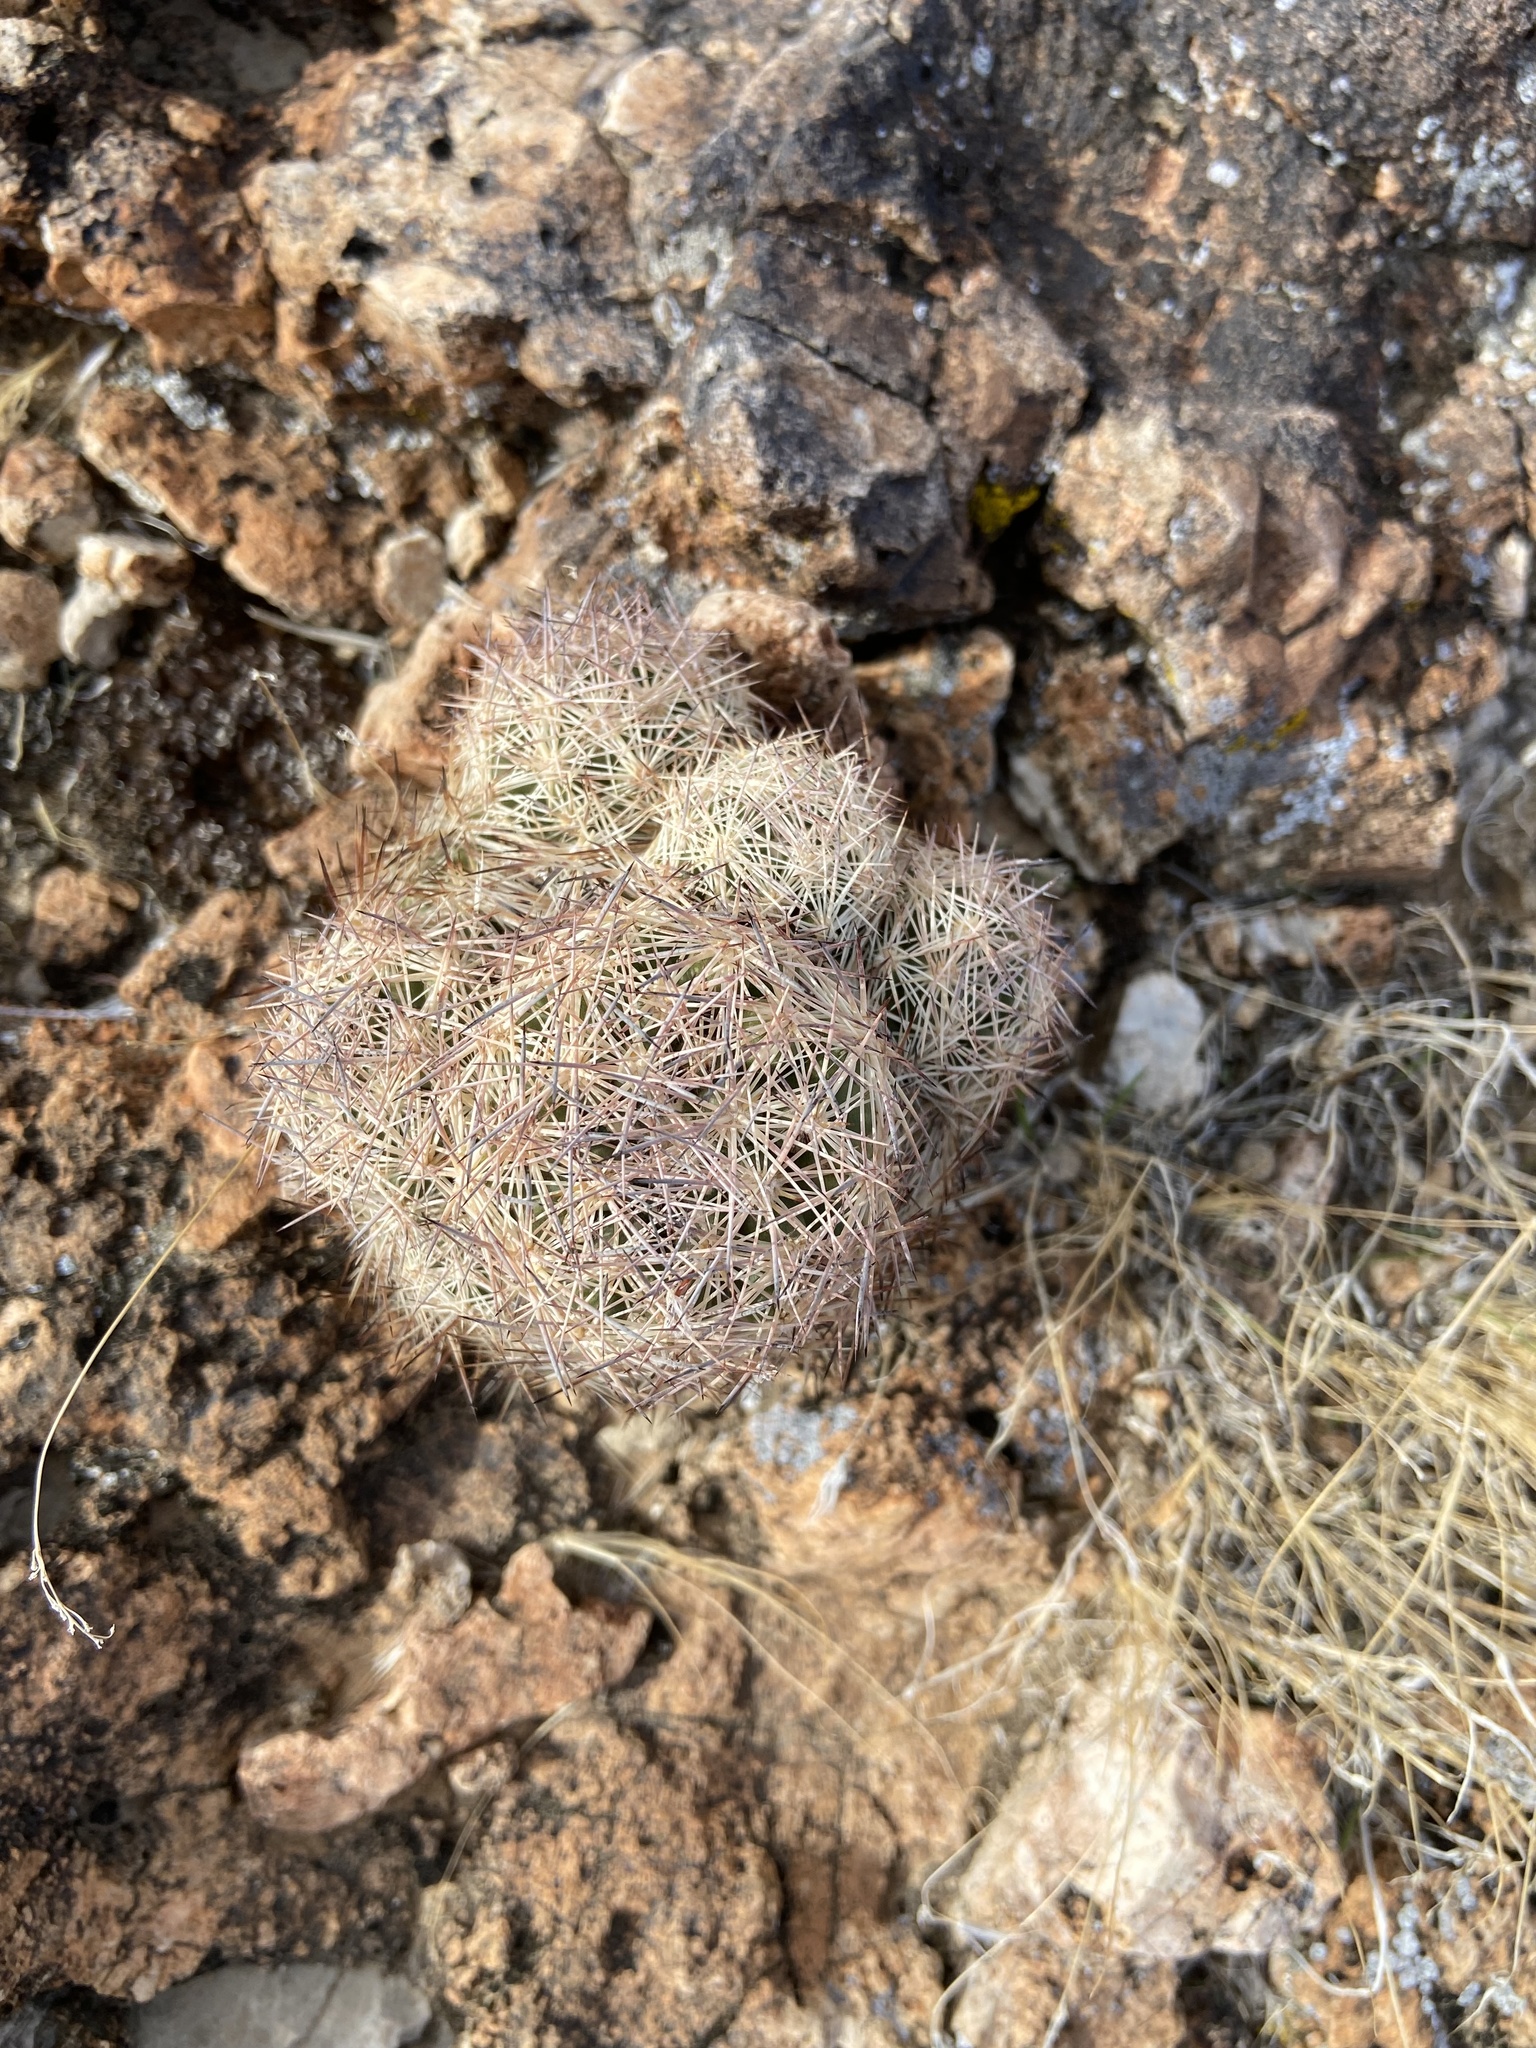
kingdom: Plantae
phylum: Tracheophyta
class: Magnoliopsida
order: Caryophyllales
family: Cactaceae
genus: Pelecyphora
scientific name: Pelecyphora dasyacantha
